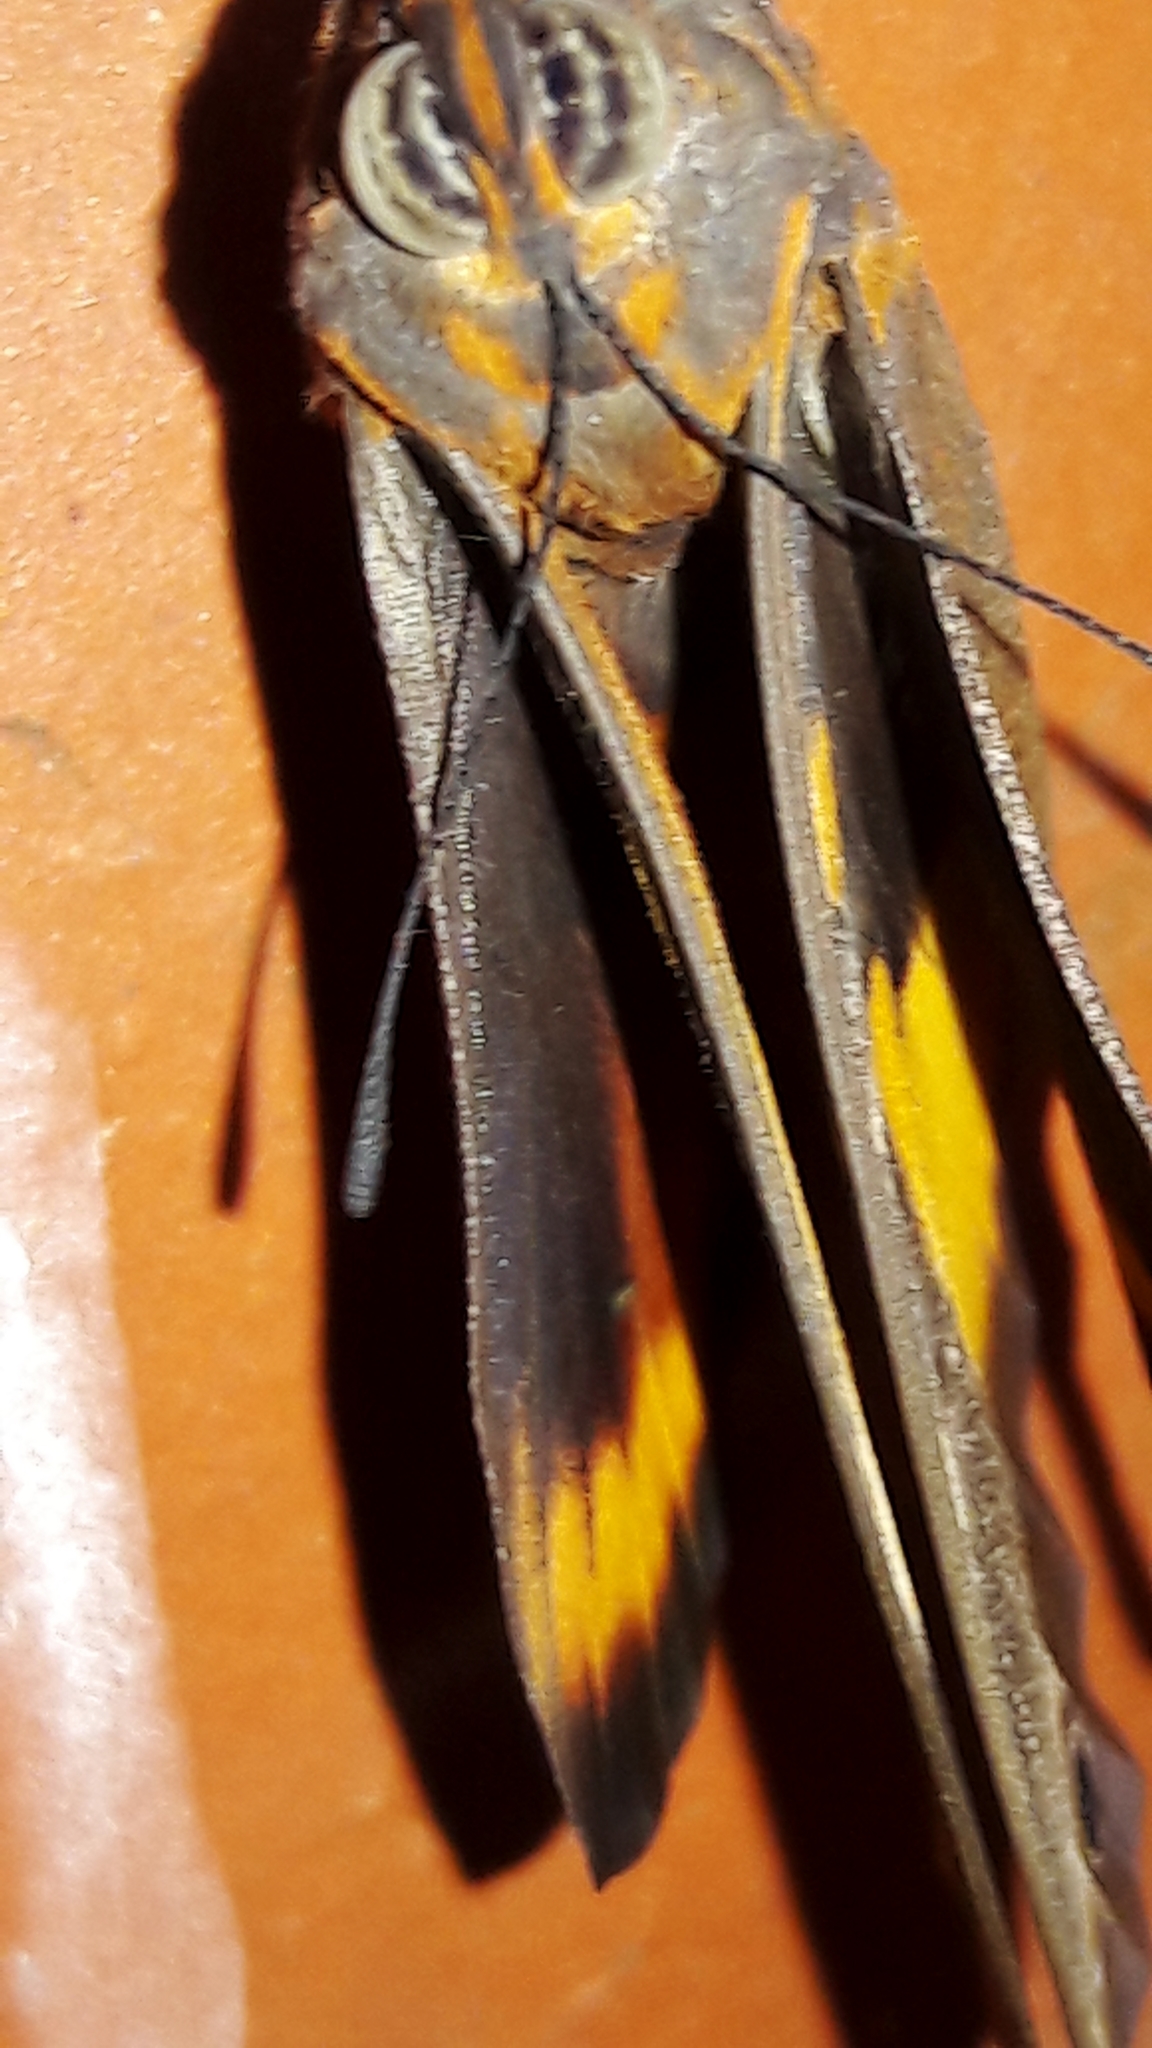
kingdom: Animalia
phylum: Arthropoda
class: Insecta
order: Lepidoptera
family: Nymphalidae
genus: Brassolis
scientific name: Brassolis sophorae
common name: Coconut caterpillar
